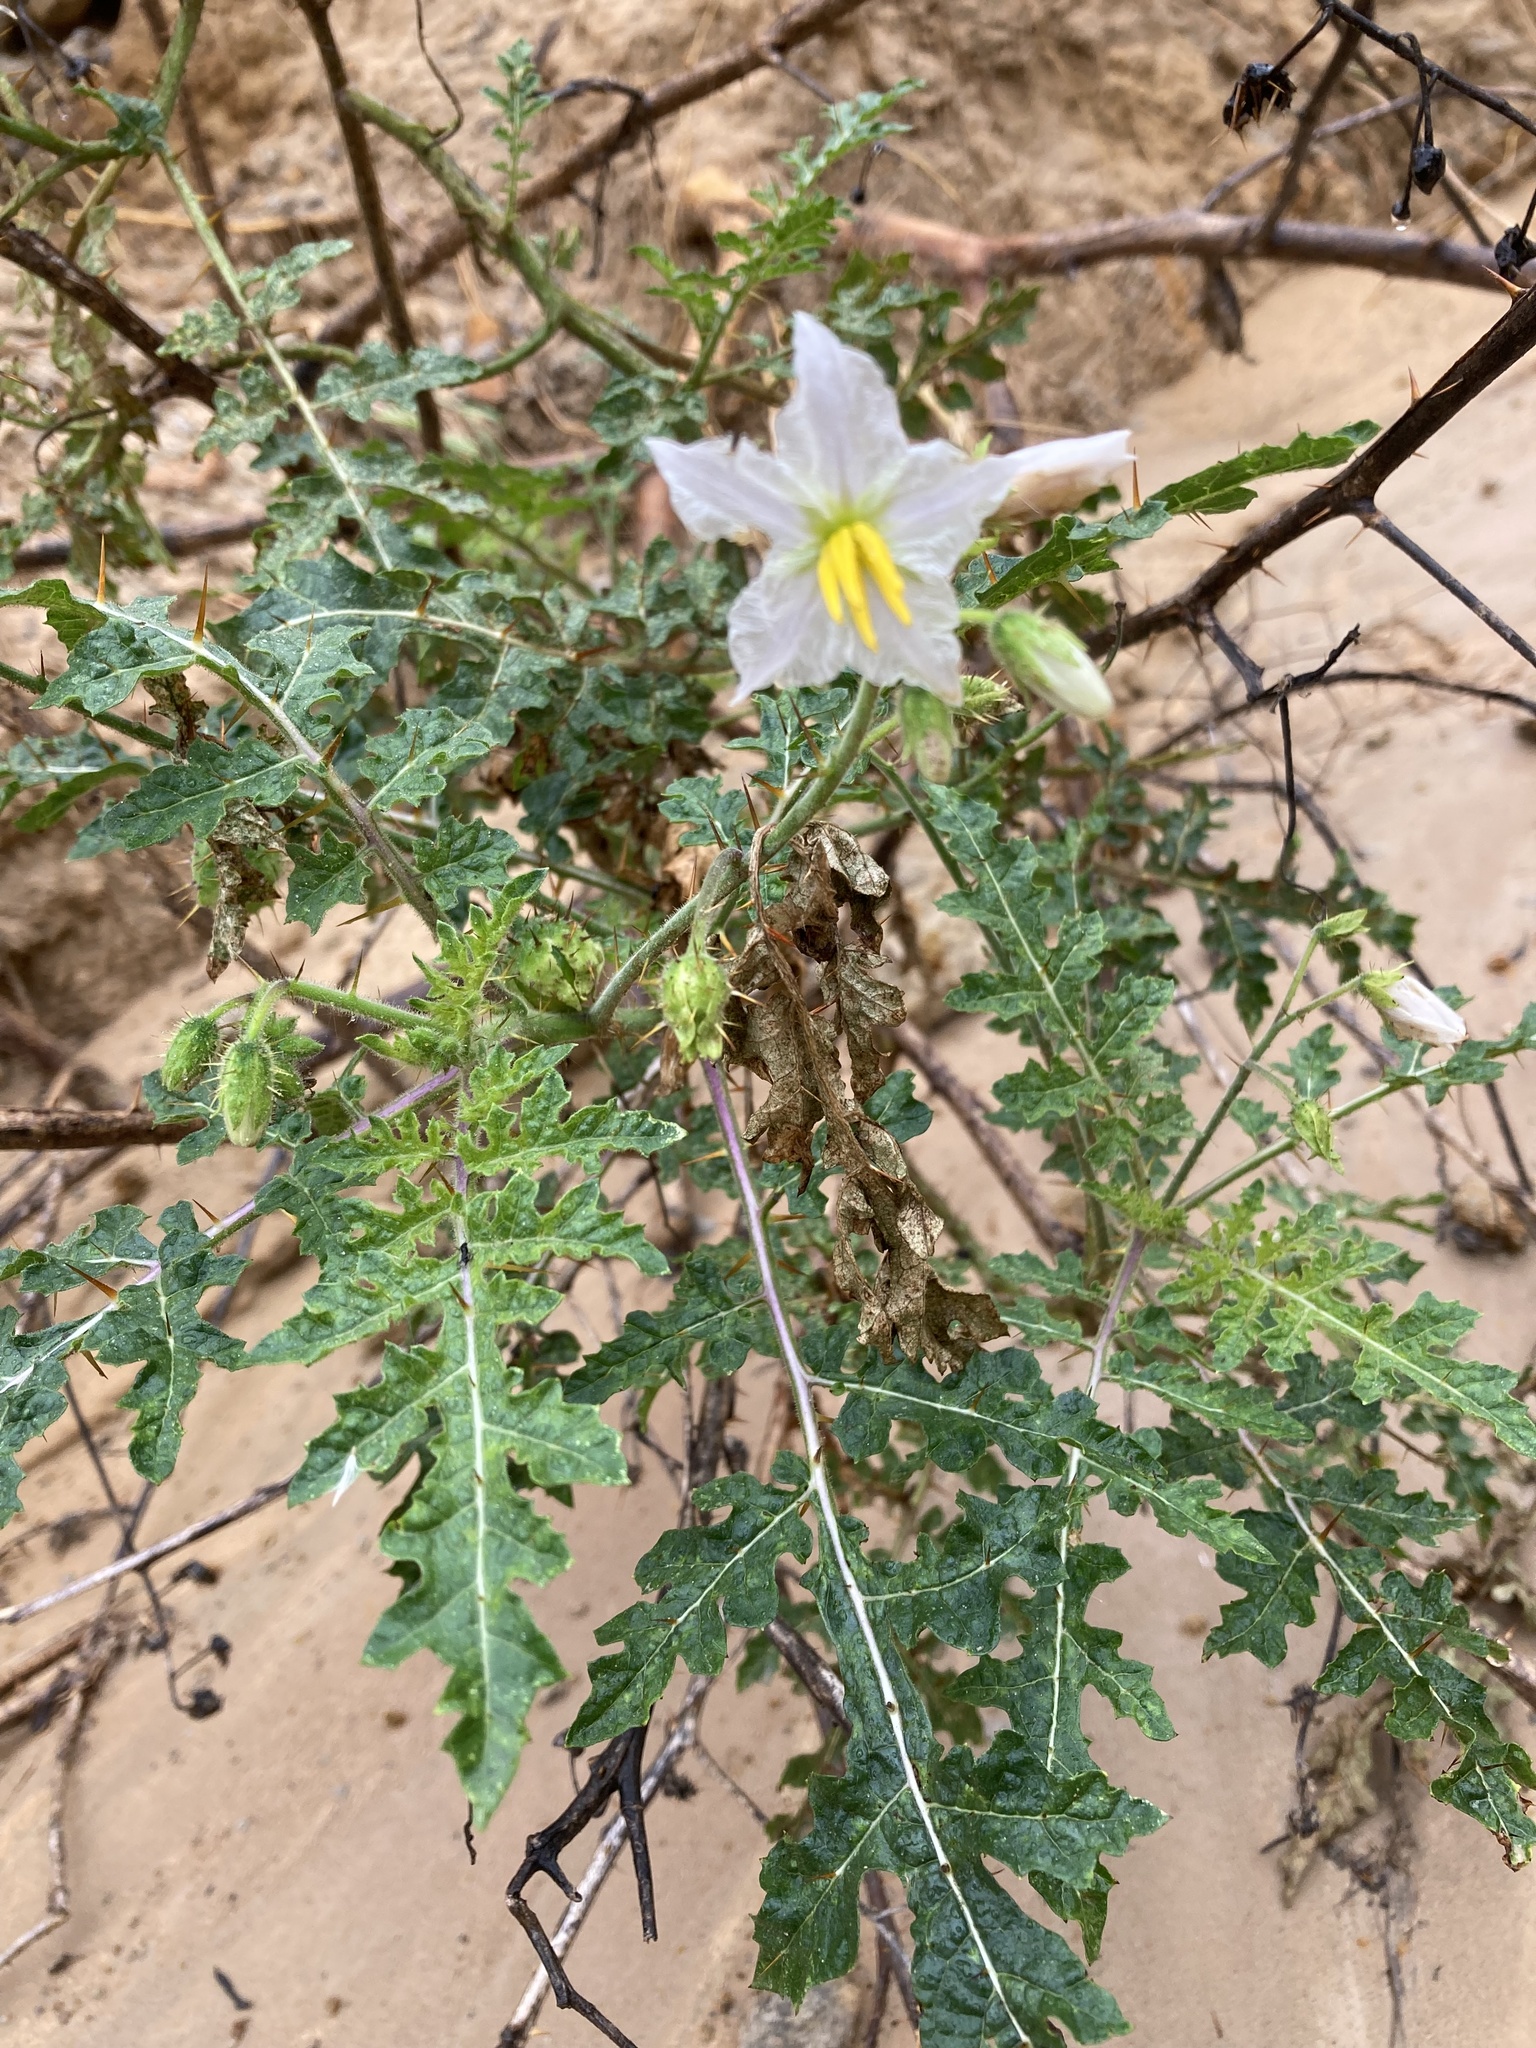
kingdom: Plantae
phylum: Tracheophyta
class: Magnoliopsida
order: Solanales
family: Solanaceae
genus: Solanum
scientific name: Solanum sisymbriifolium
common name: Red buffalo-bur
